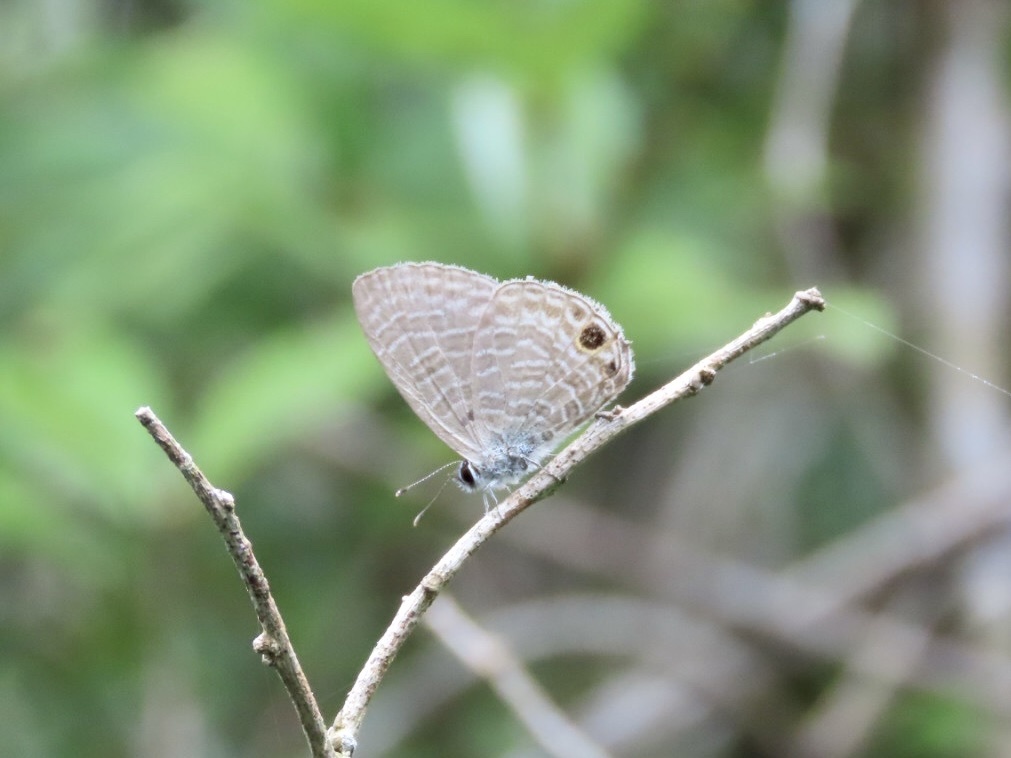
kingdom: Animalia
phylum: Arthropoda
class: Insecta
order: Lepidoptera
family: Lycaenidae
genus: Nacaduba
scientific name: Nacaduba berenice
